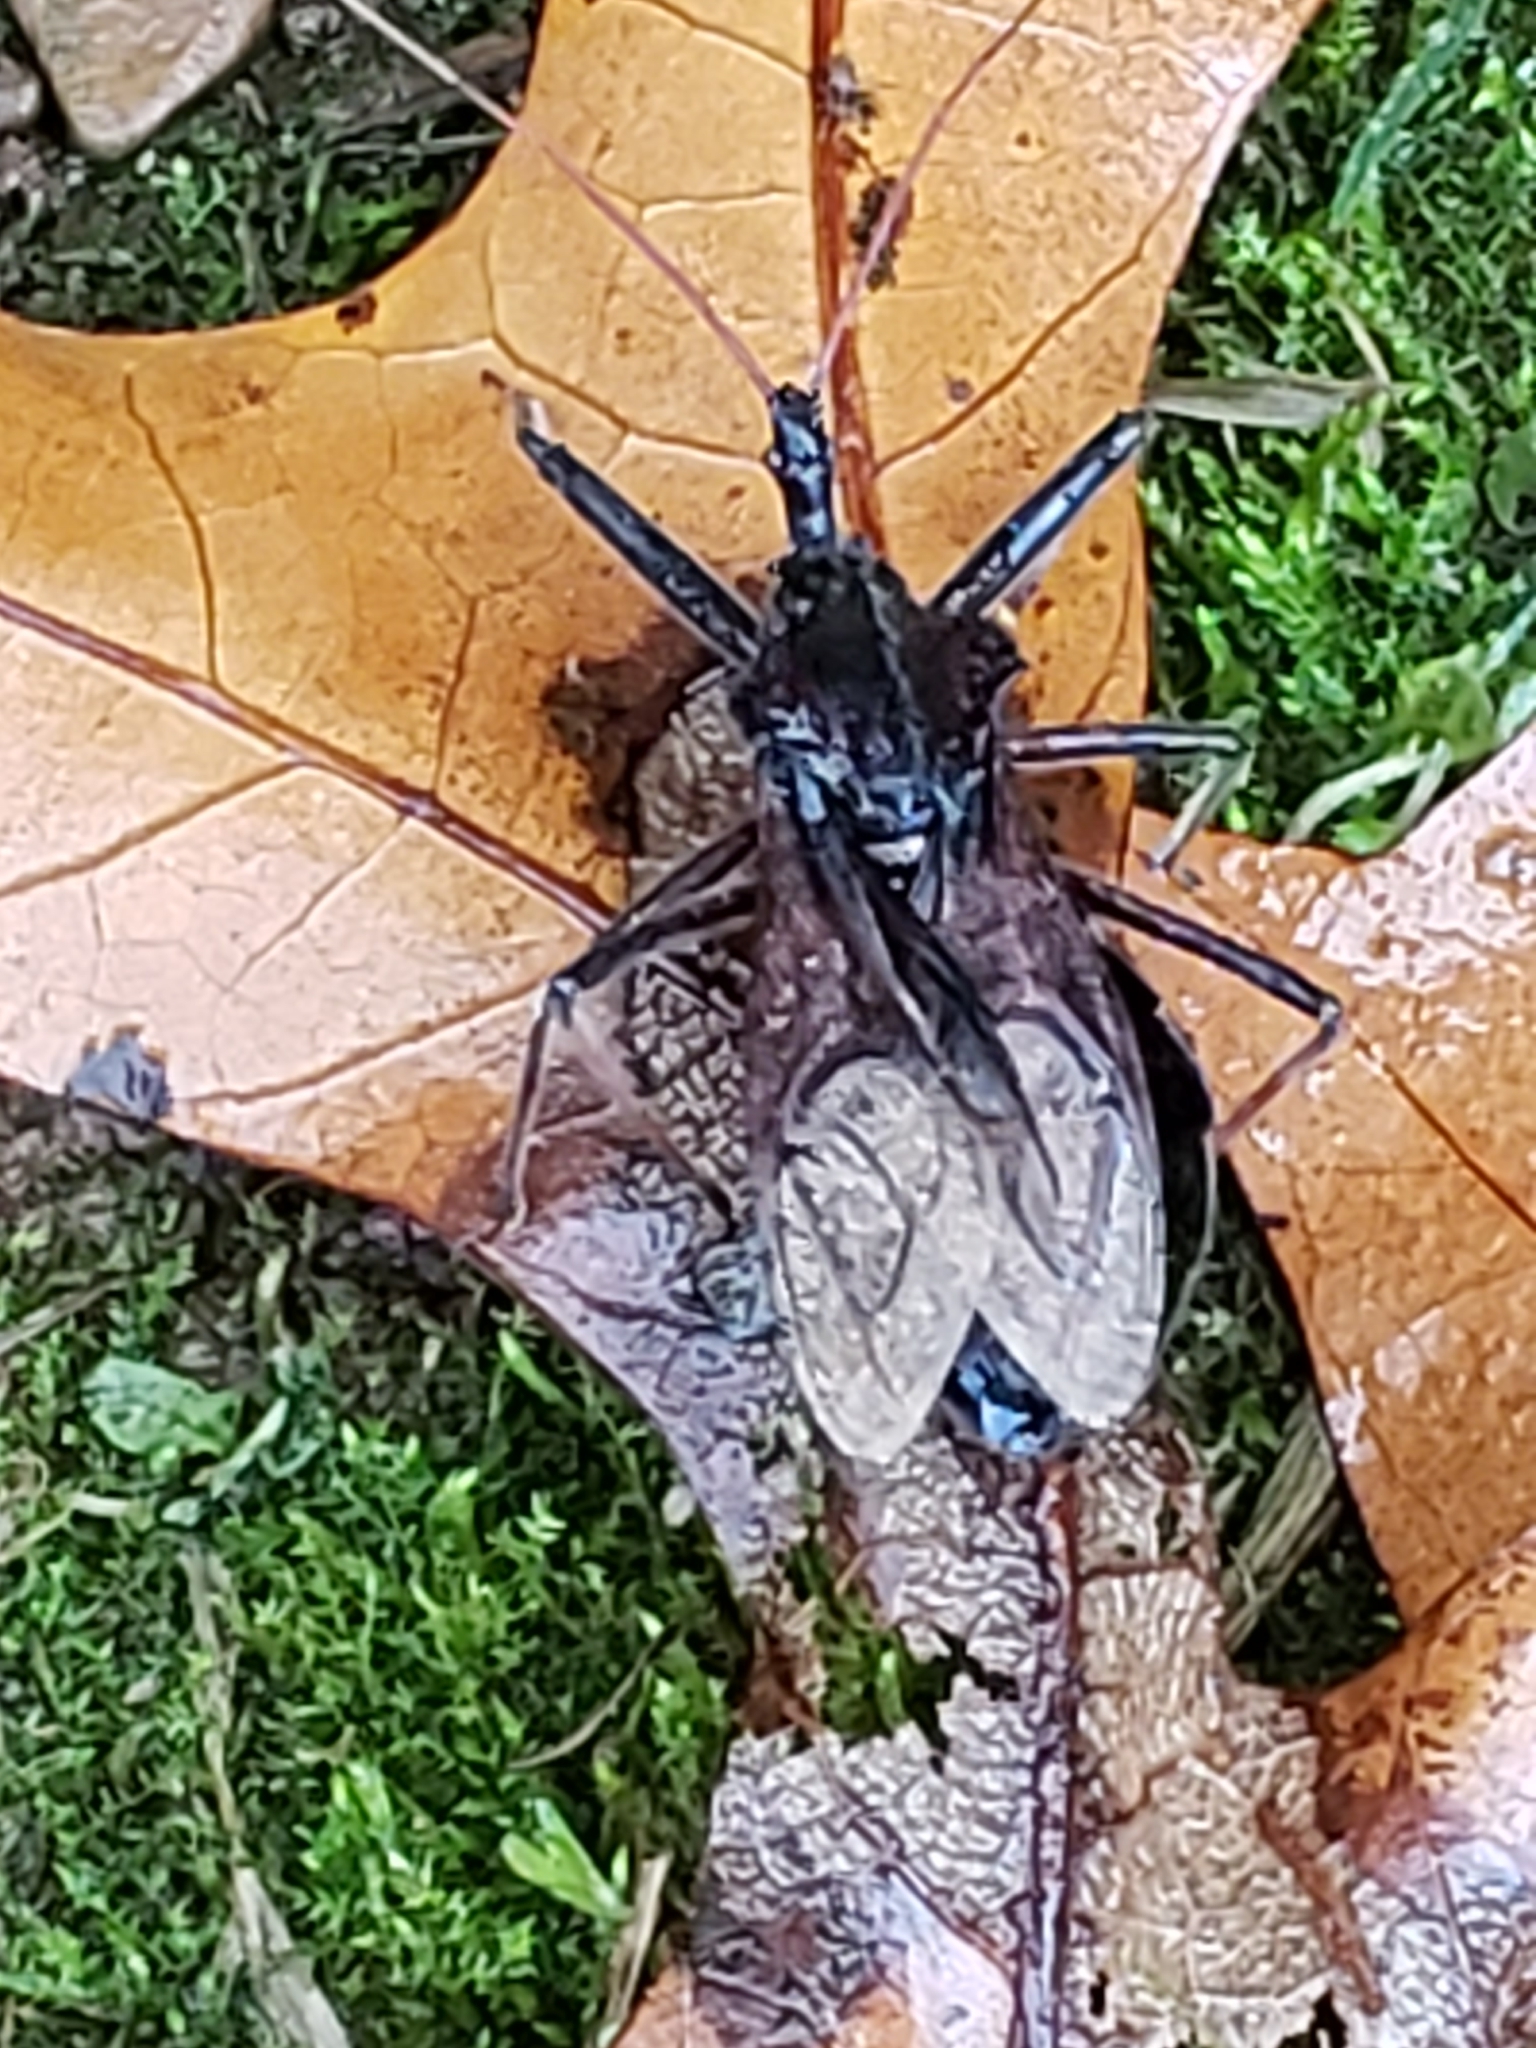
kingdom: Animalia
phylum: Arthropoda
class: Insecta
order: Hemiptera
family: Reduviidae
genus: Arilus
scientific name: Arilus cristatus
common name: North american wheel bug
